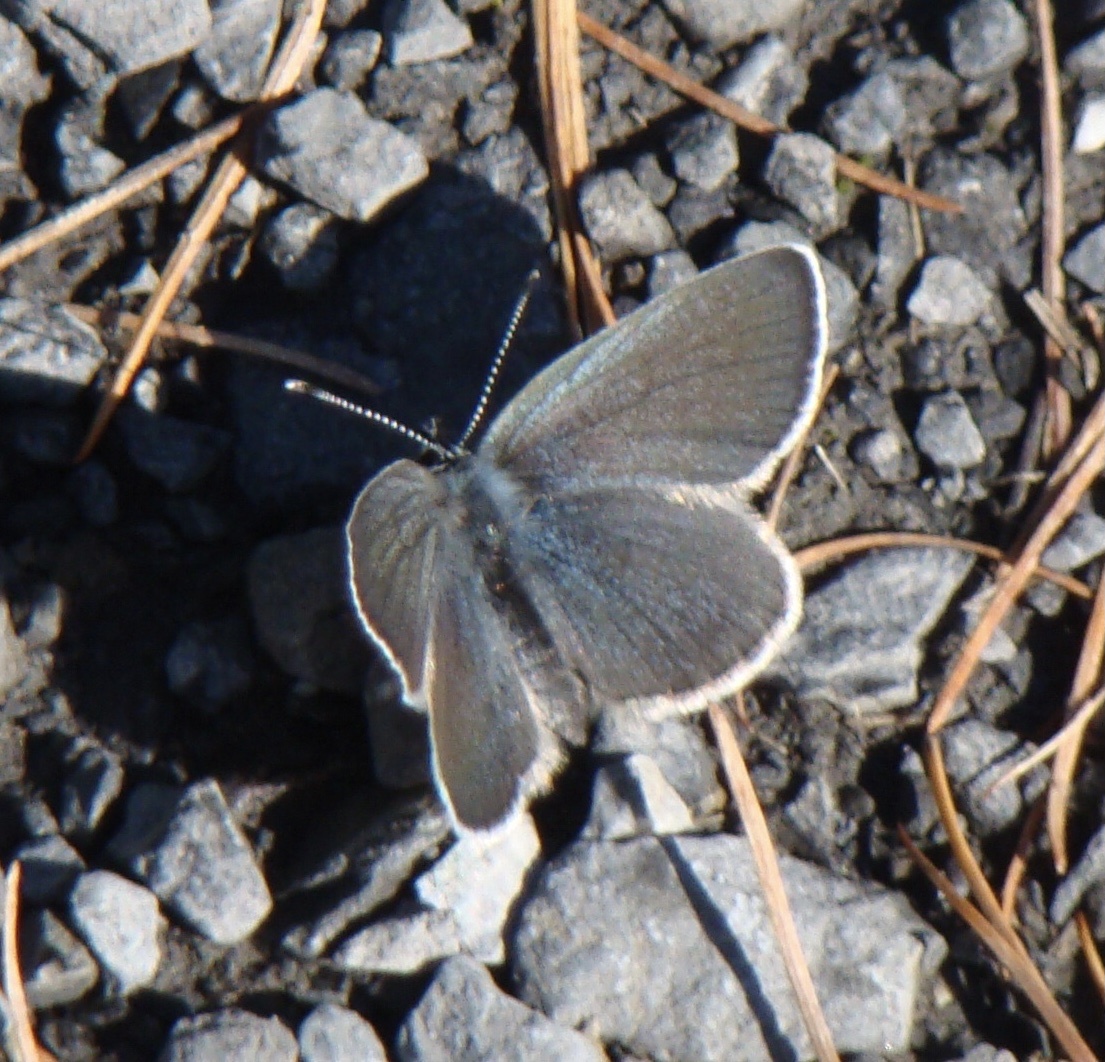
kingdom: Animalia
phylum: Arthropoda
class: Insecta
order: Lepidoptera
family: Lycaenidae
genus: Cupido
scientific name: Cupido minimus
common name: Small blue
